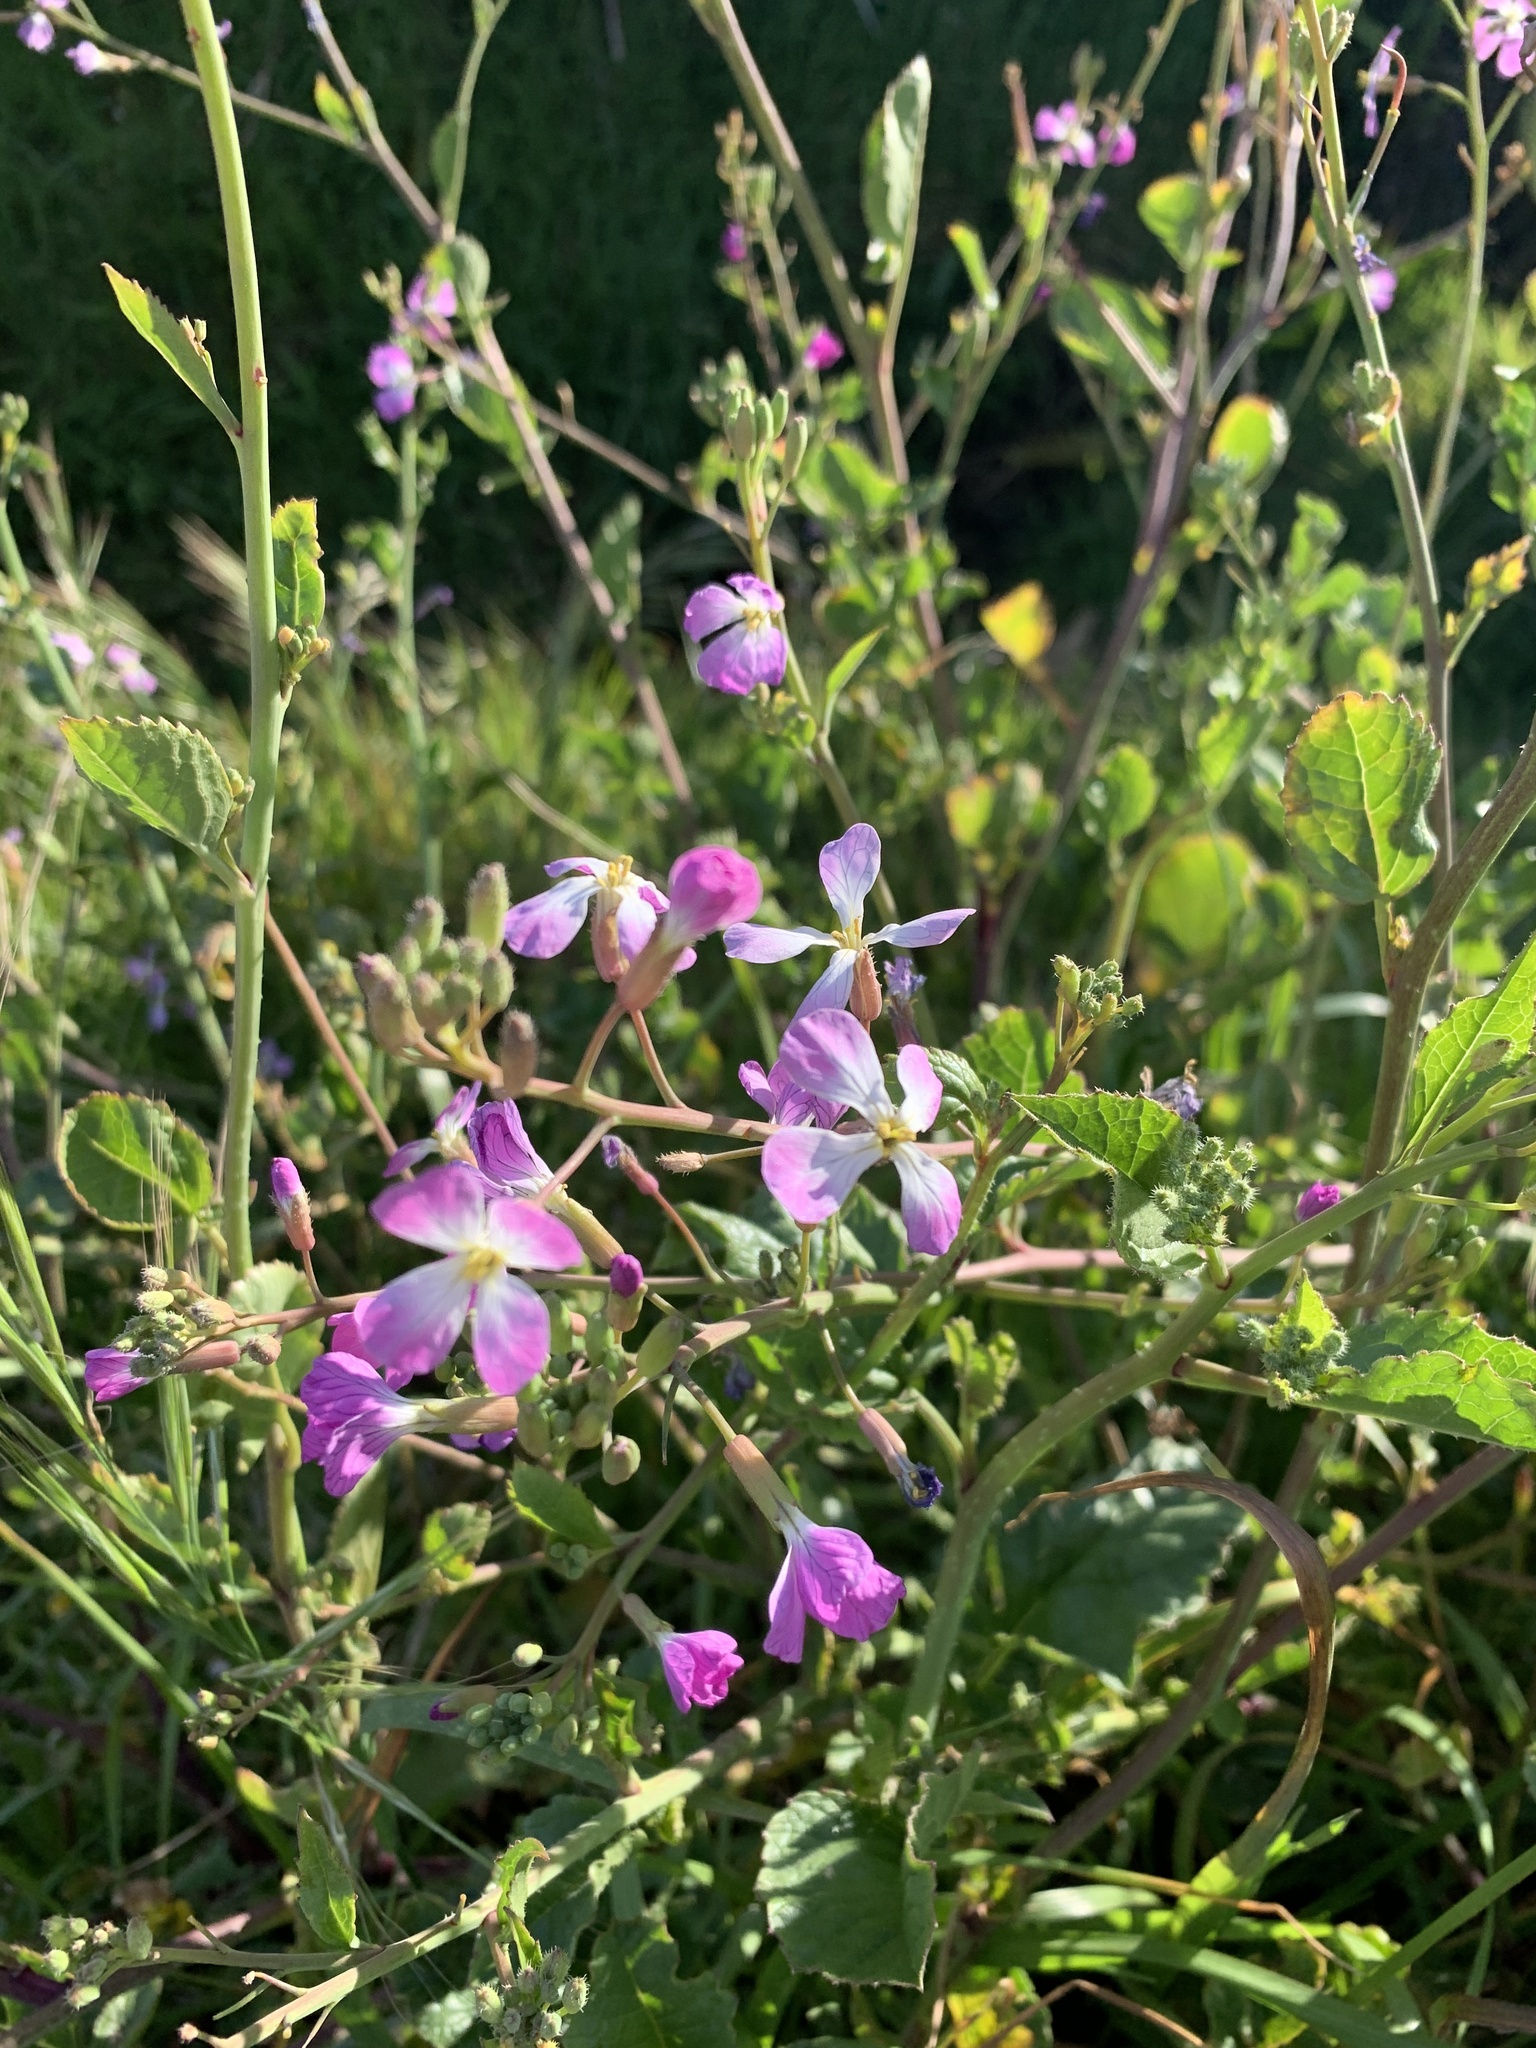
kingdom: Plantae
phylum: Tracheophyta
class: Magnoliopsida
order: Brassicales
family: Brassicaceae
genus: Raphanus
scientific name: Raphanus sativus
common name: Cultivated radish
